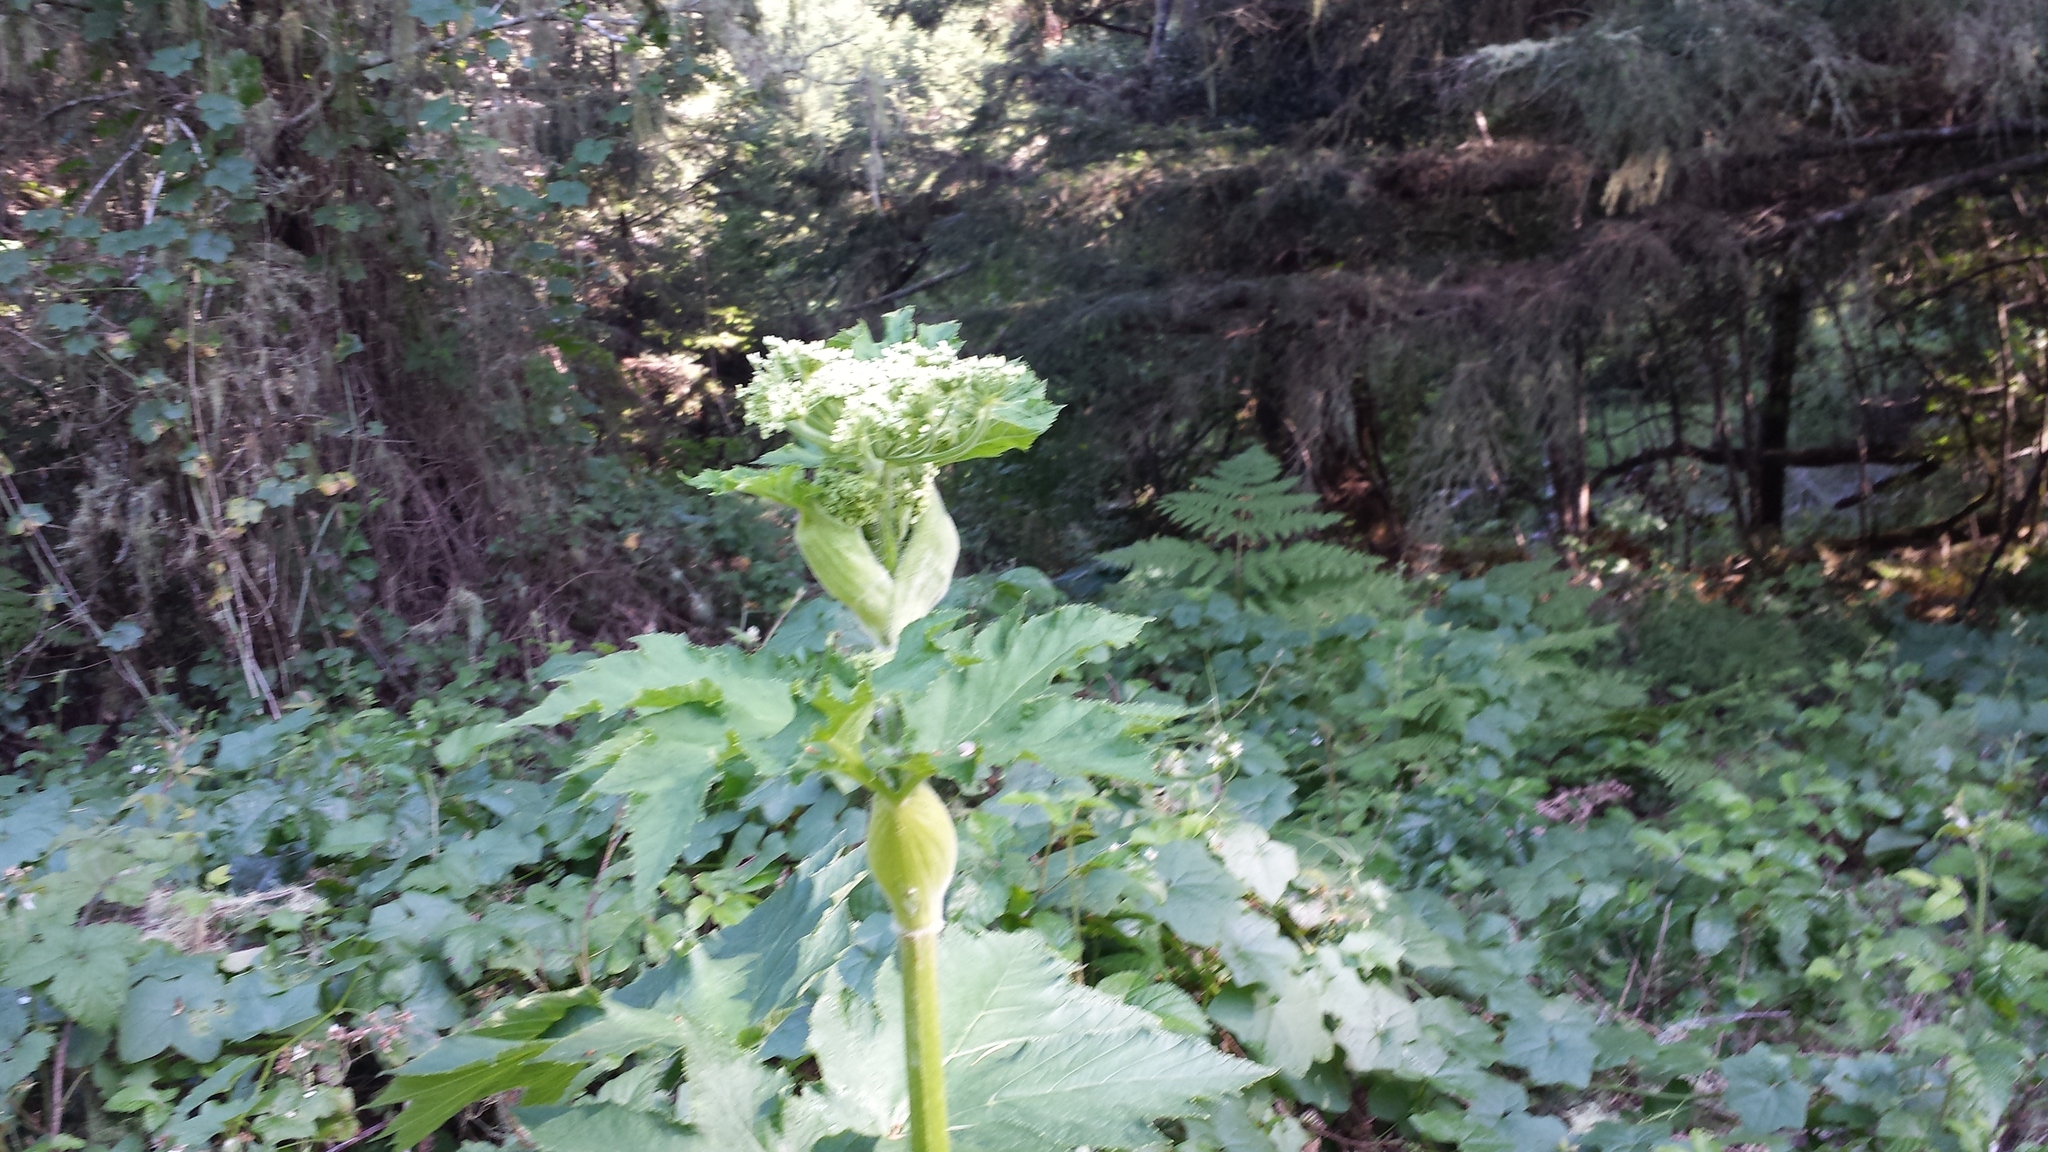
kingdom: Plantae
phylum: Tracheophyta
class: Magnoliopsida
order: Apiales
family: Apiaceae
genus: Heracleum
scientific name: Heracleum maximum
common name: American cow parsnip
